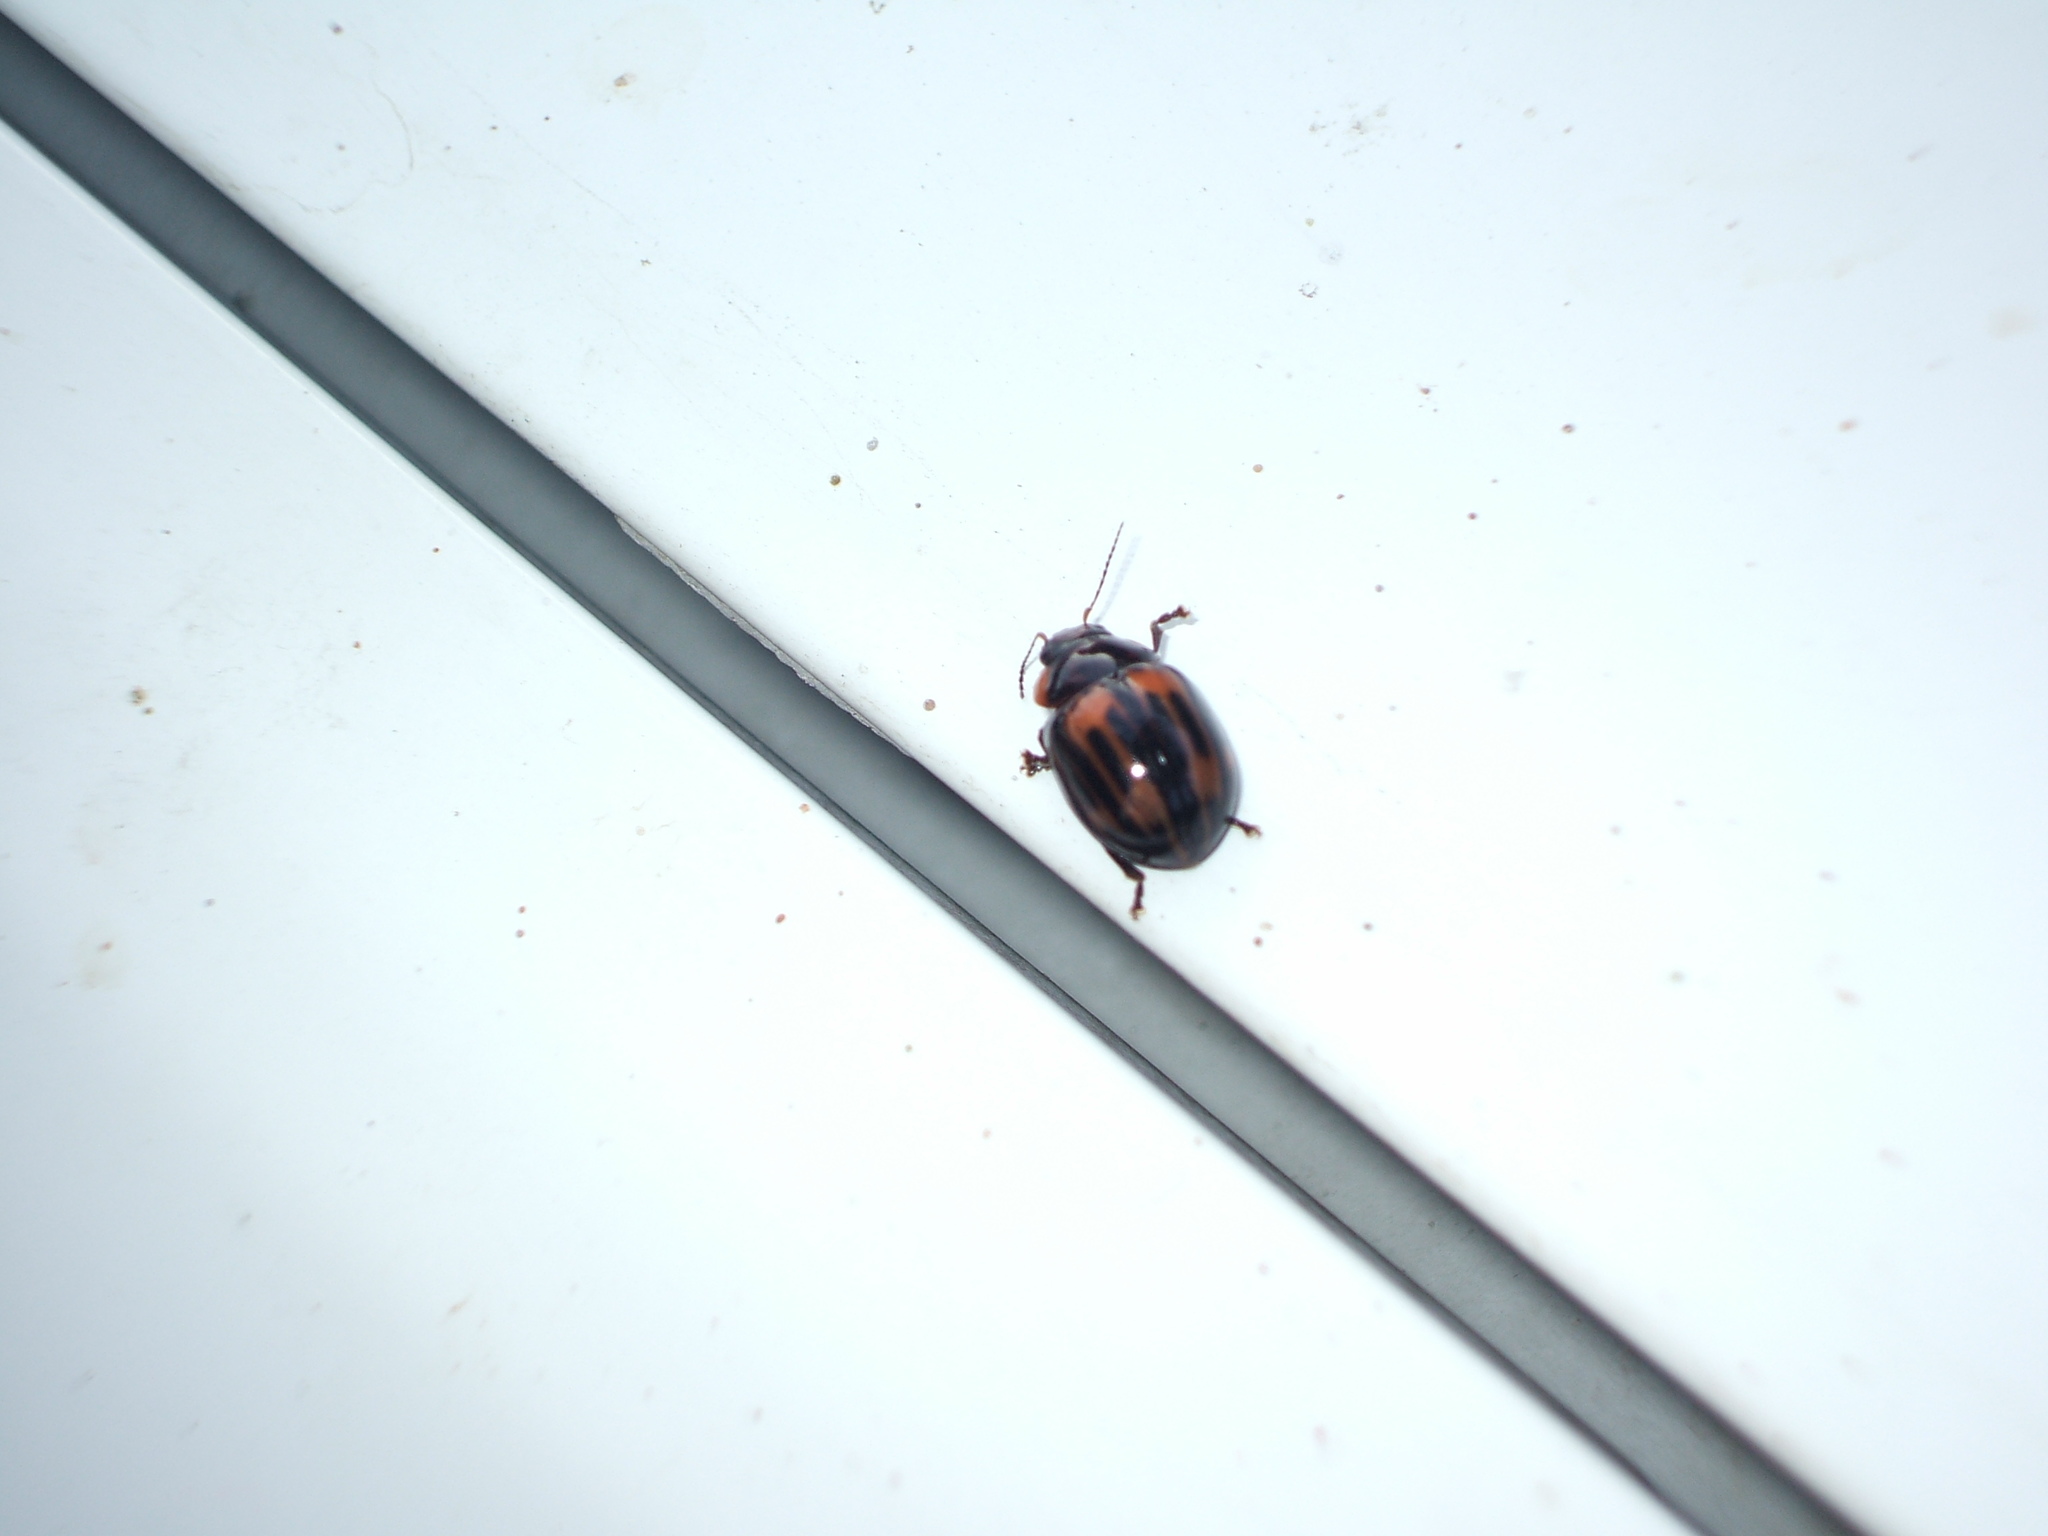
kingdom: Animalia
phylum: Arthropoda
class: Insecta
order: Coleoptera
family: Chrysomelidae
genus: Paropsisterna
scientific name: Paropsisterna
